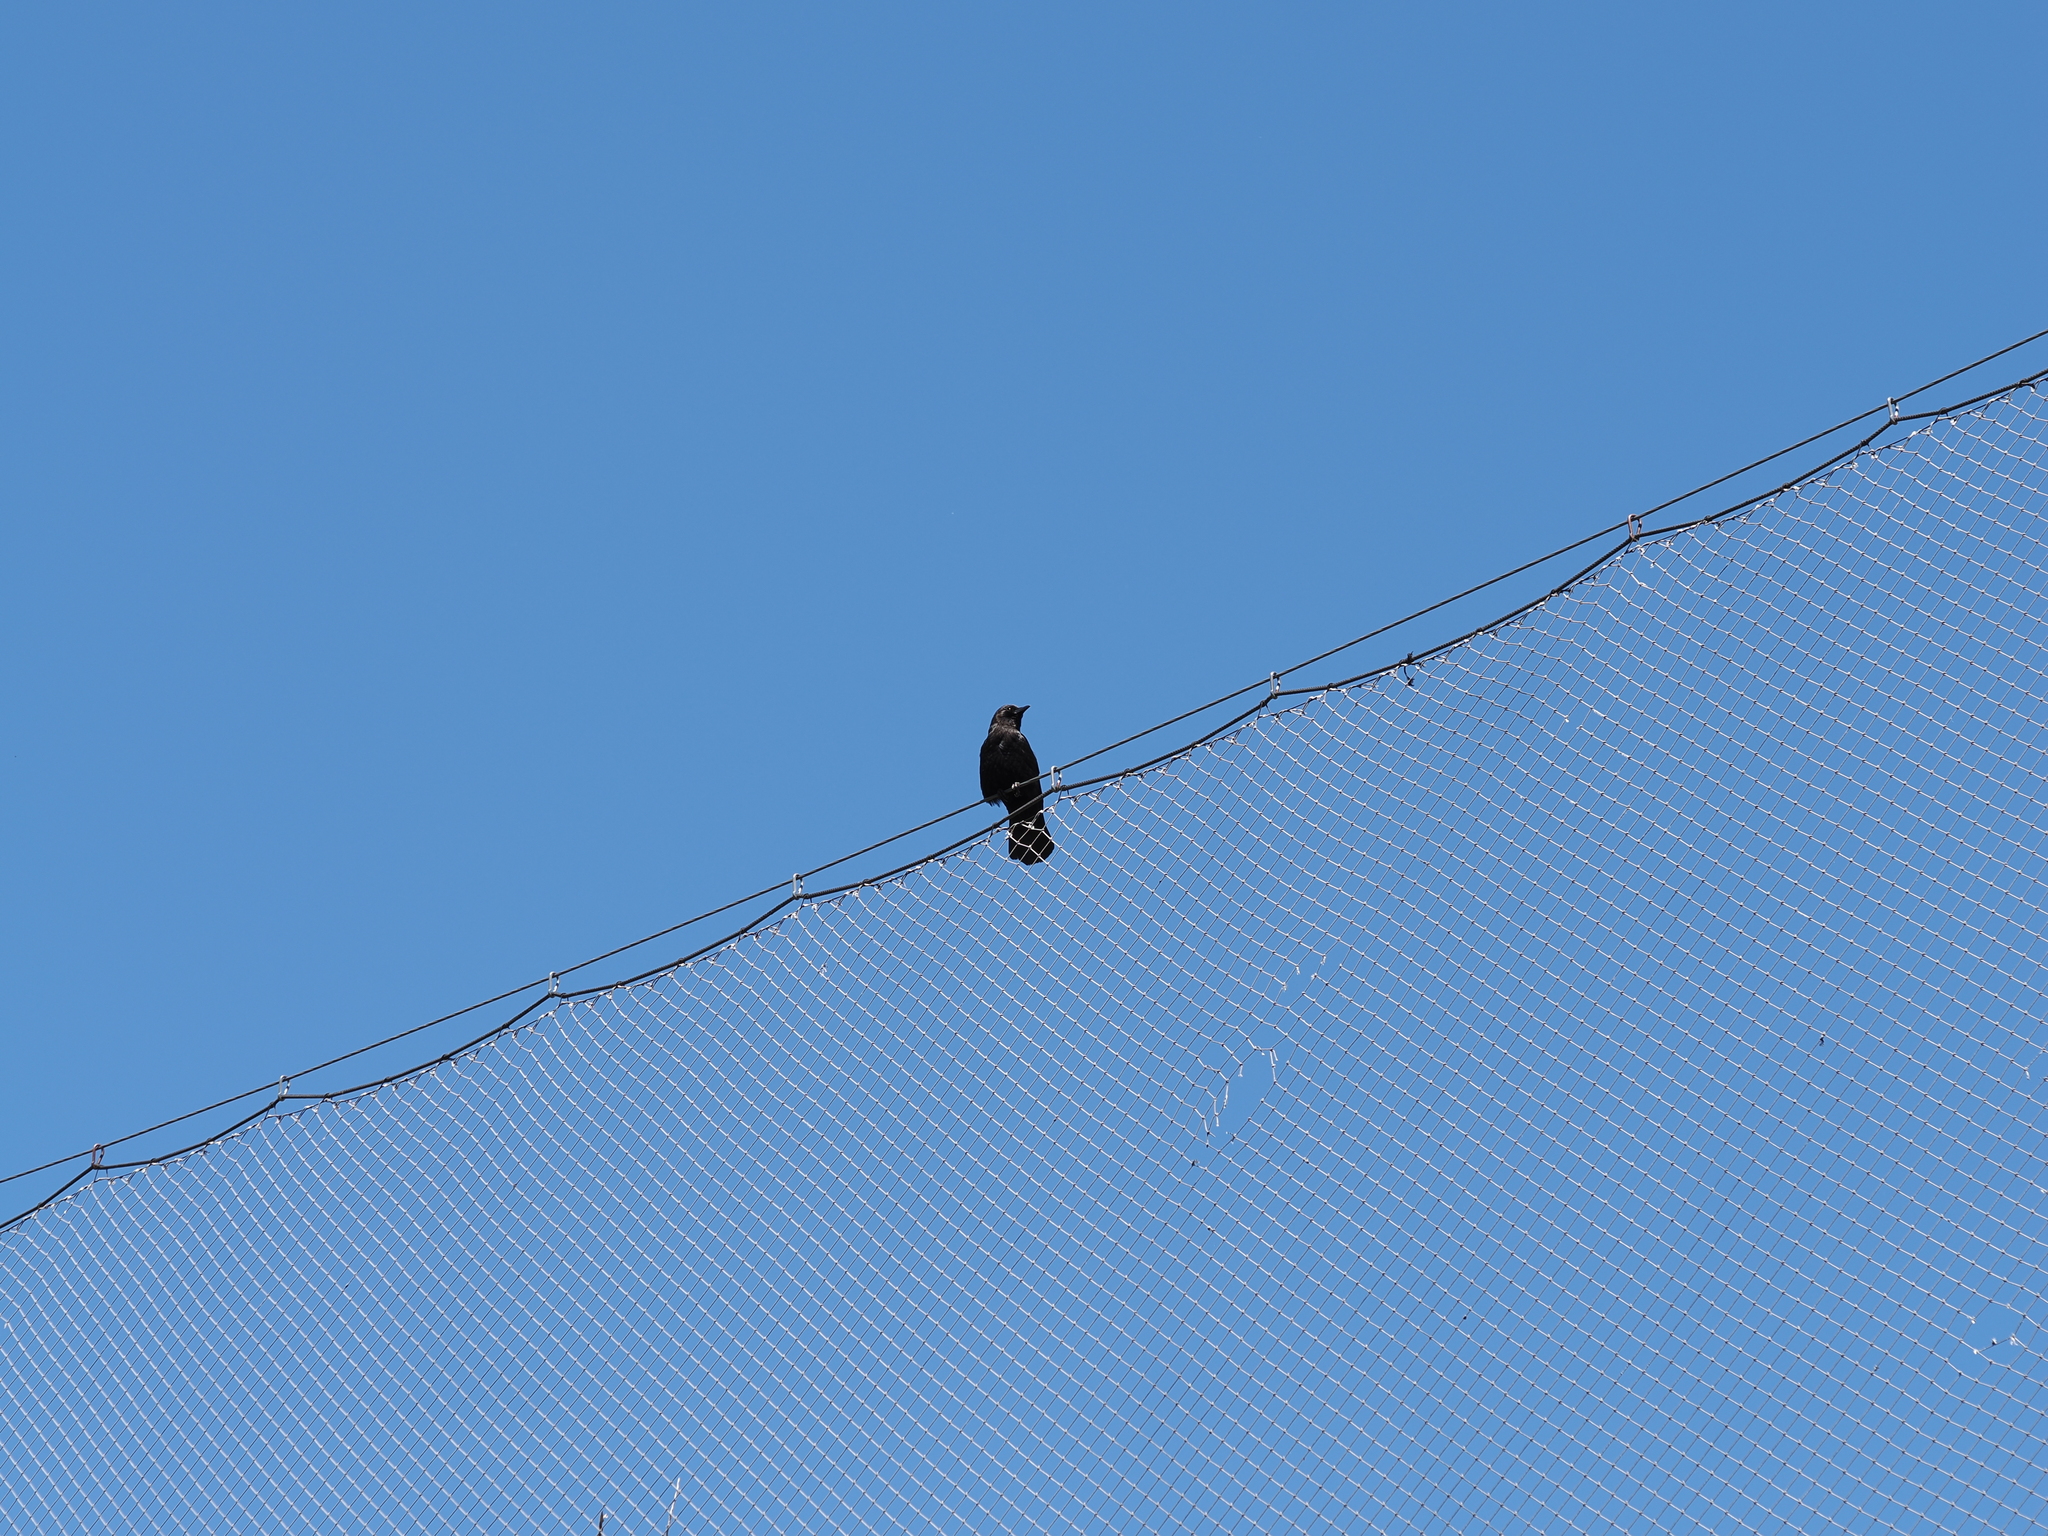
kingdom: Animalia
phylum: Chordata
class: Aves
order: Passeriformes
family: Corvidae
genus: Corvus
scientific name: Corvus brachyrhynchos
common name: American crow
